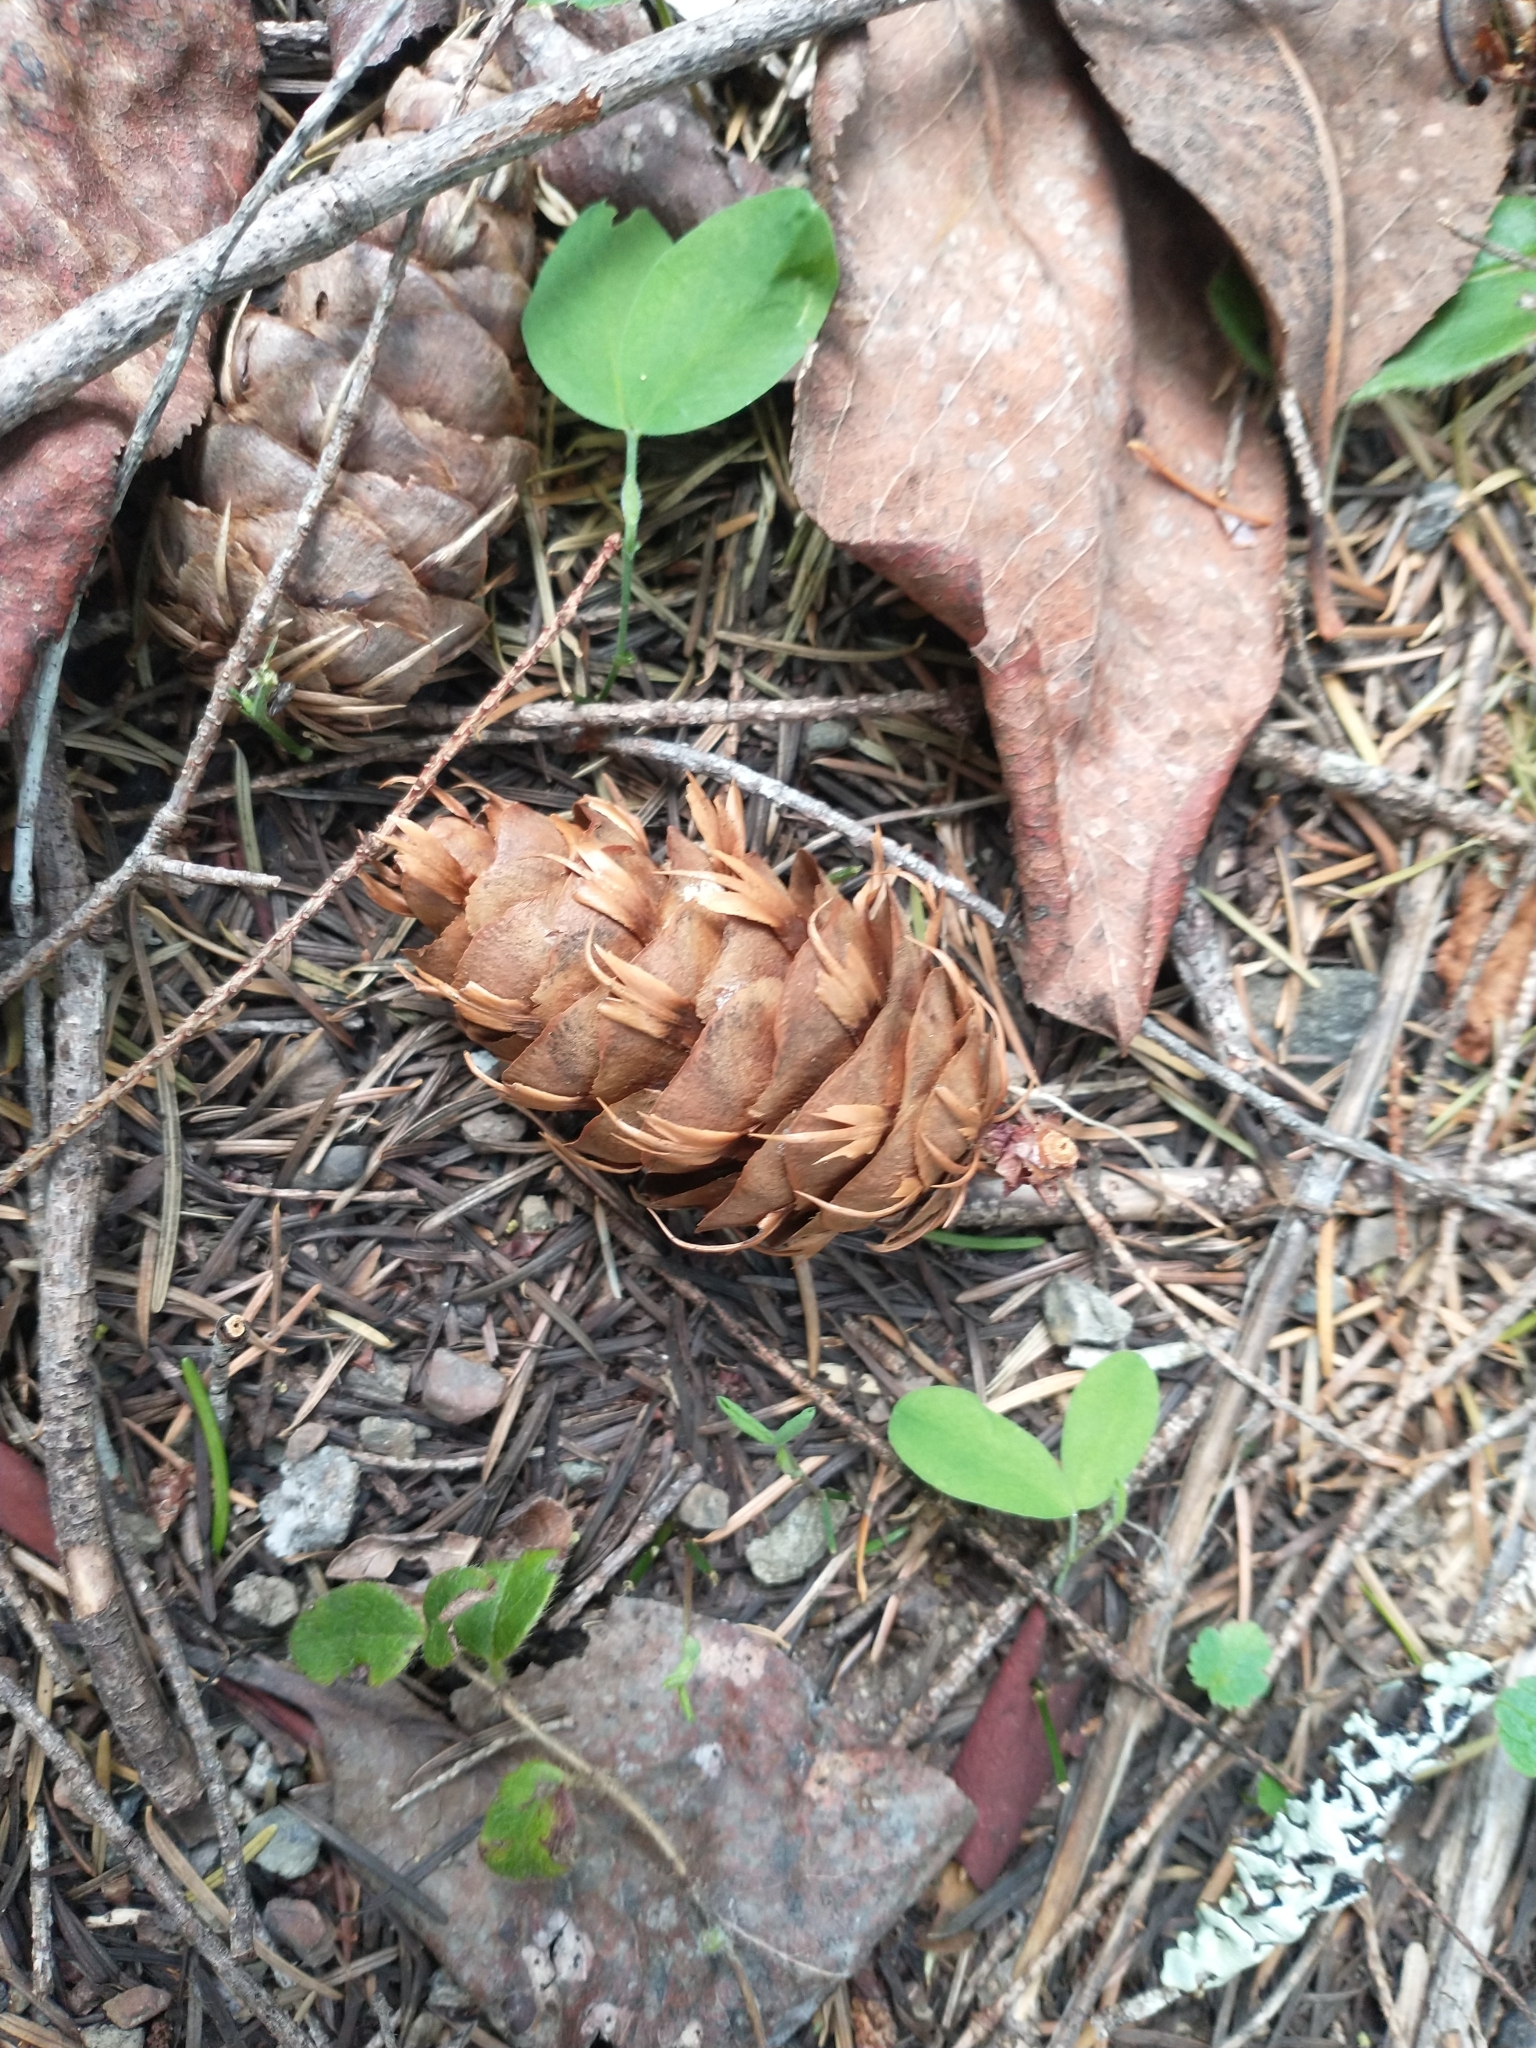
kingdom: Plantae
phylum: Tracheophyta
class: Pinopsida
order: Pinales
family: Pinaceae
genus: Pseudotsuga
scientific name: Pseudotsuga menziesii
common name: Douglas fir
